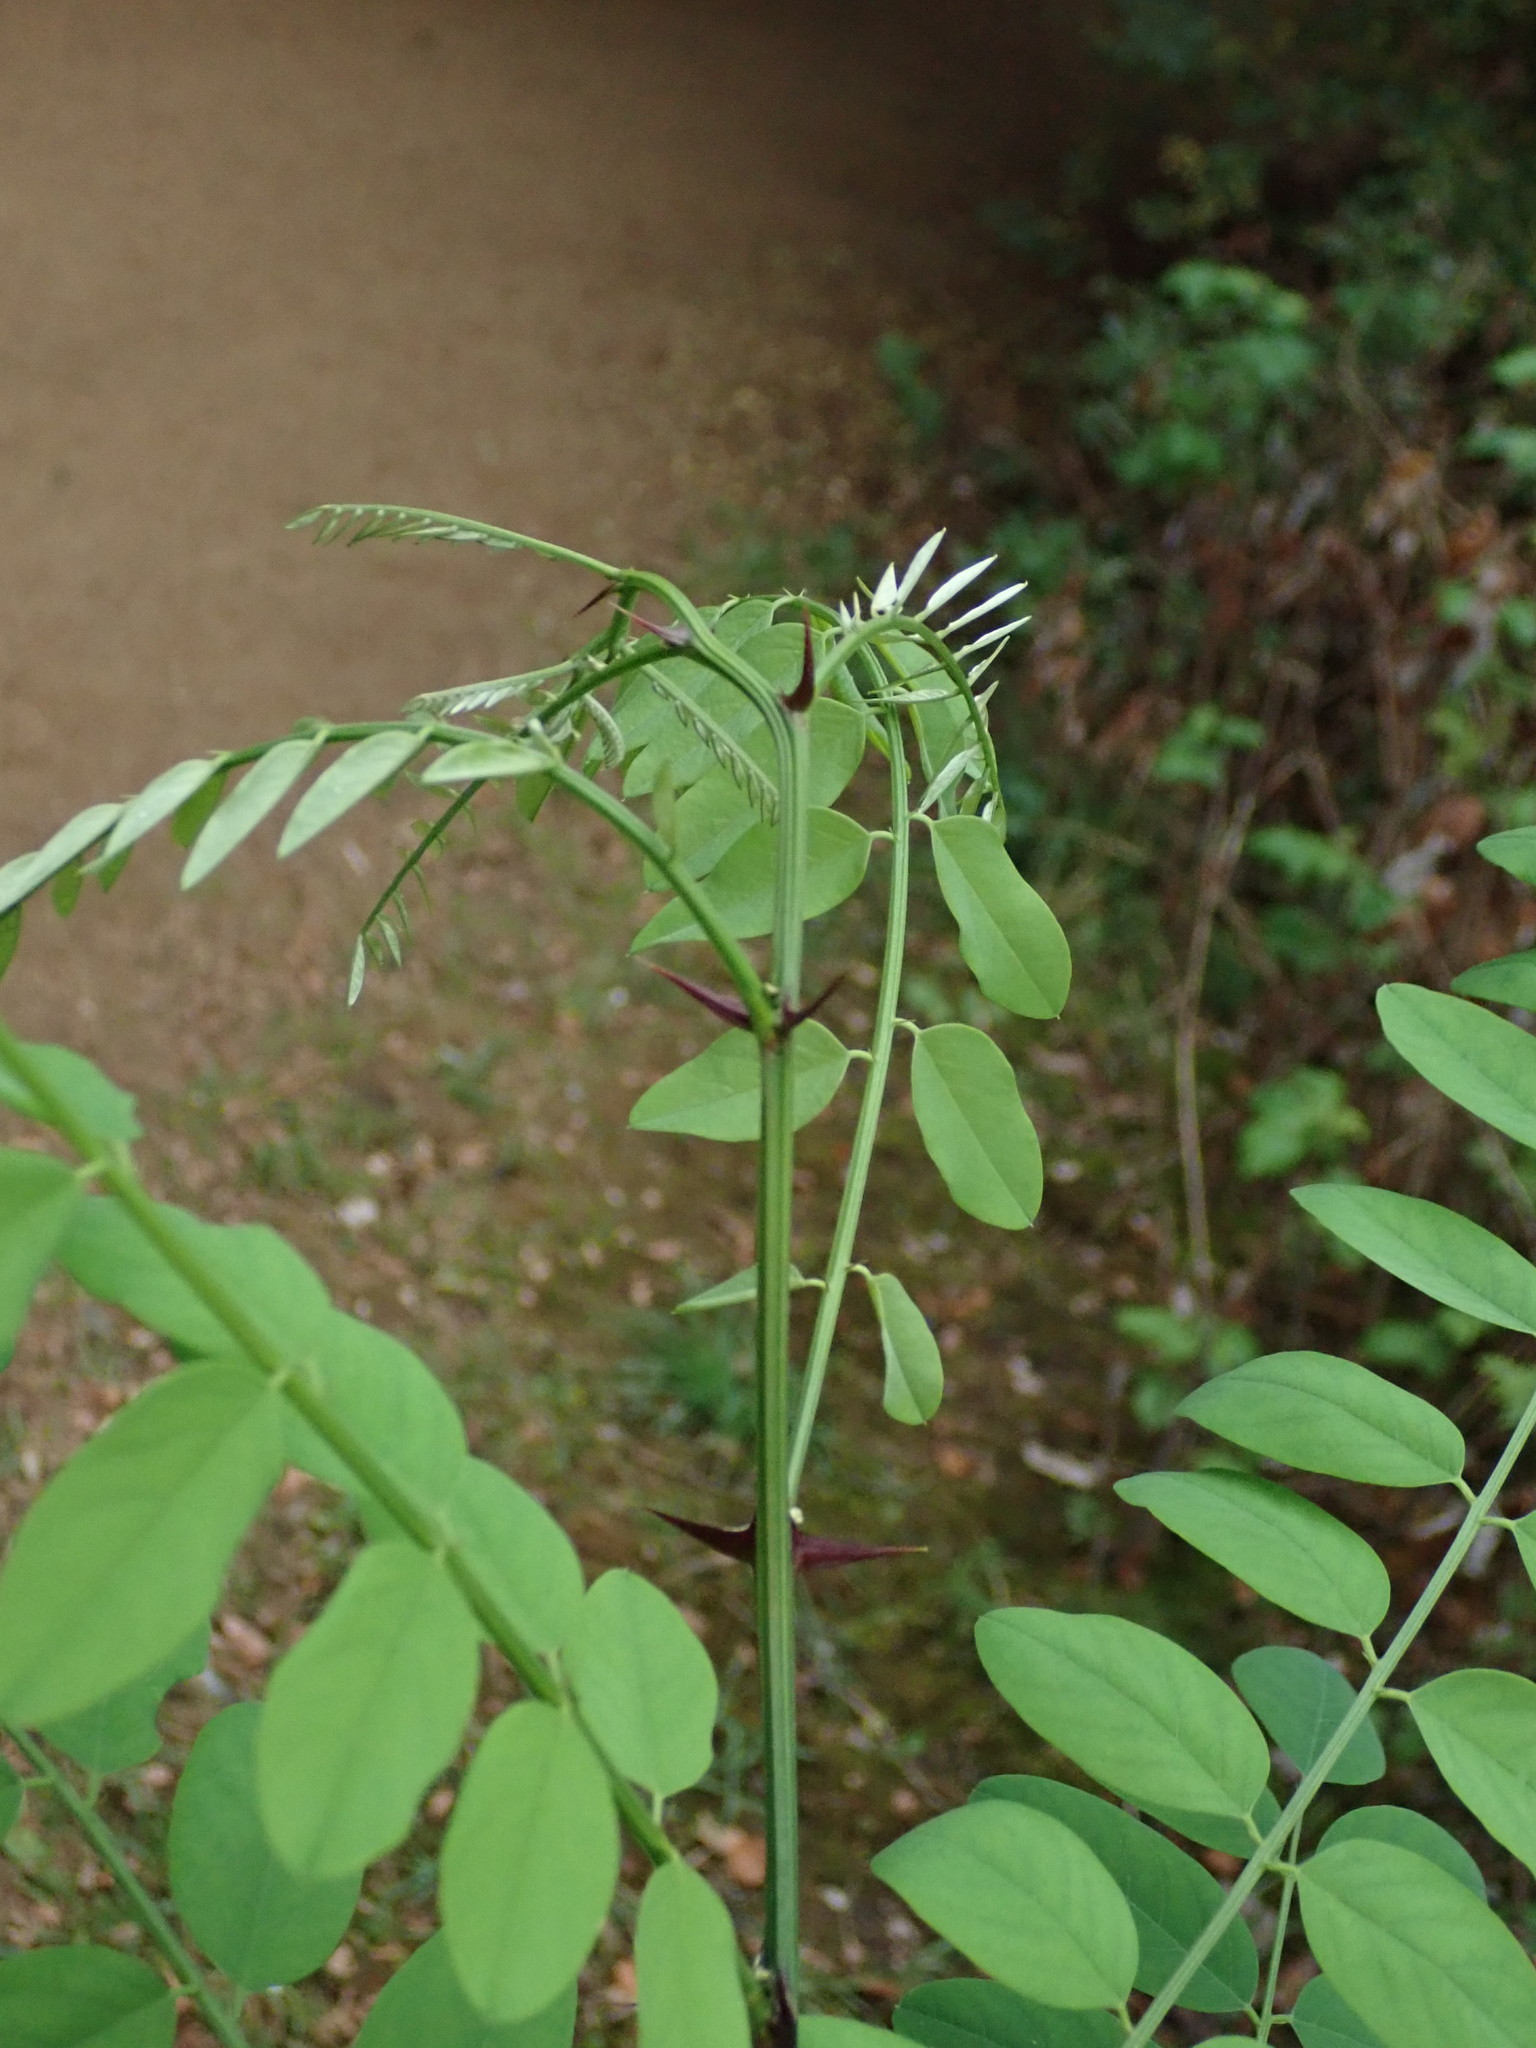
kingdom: Plantae
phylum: Tracheophyta
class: Magnoliopsida
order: Fabales
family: Fabaceae
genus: Robinia
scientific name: Robinia pseudoacacia
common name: Black locust
